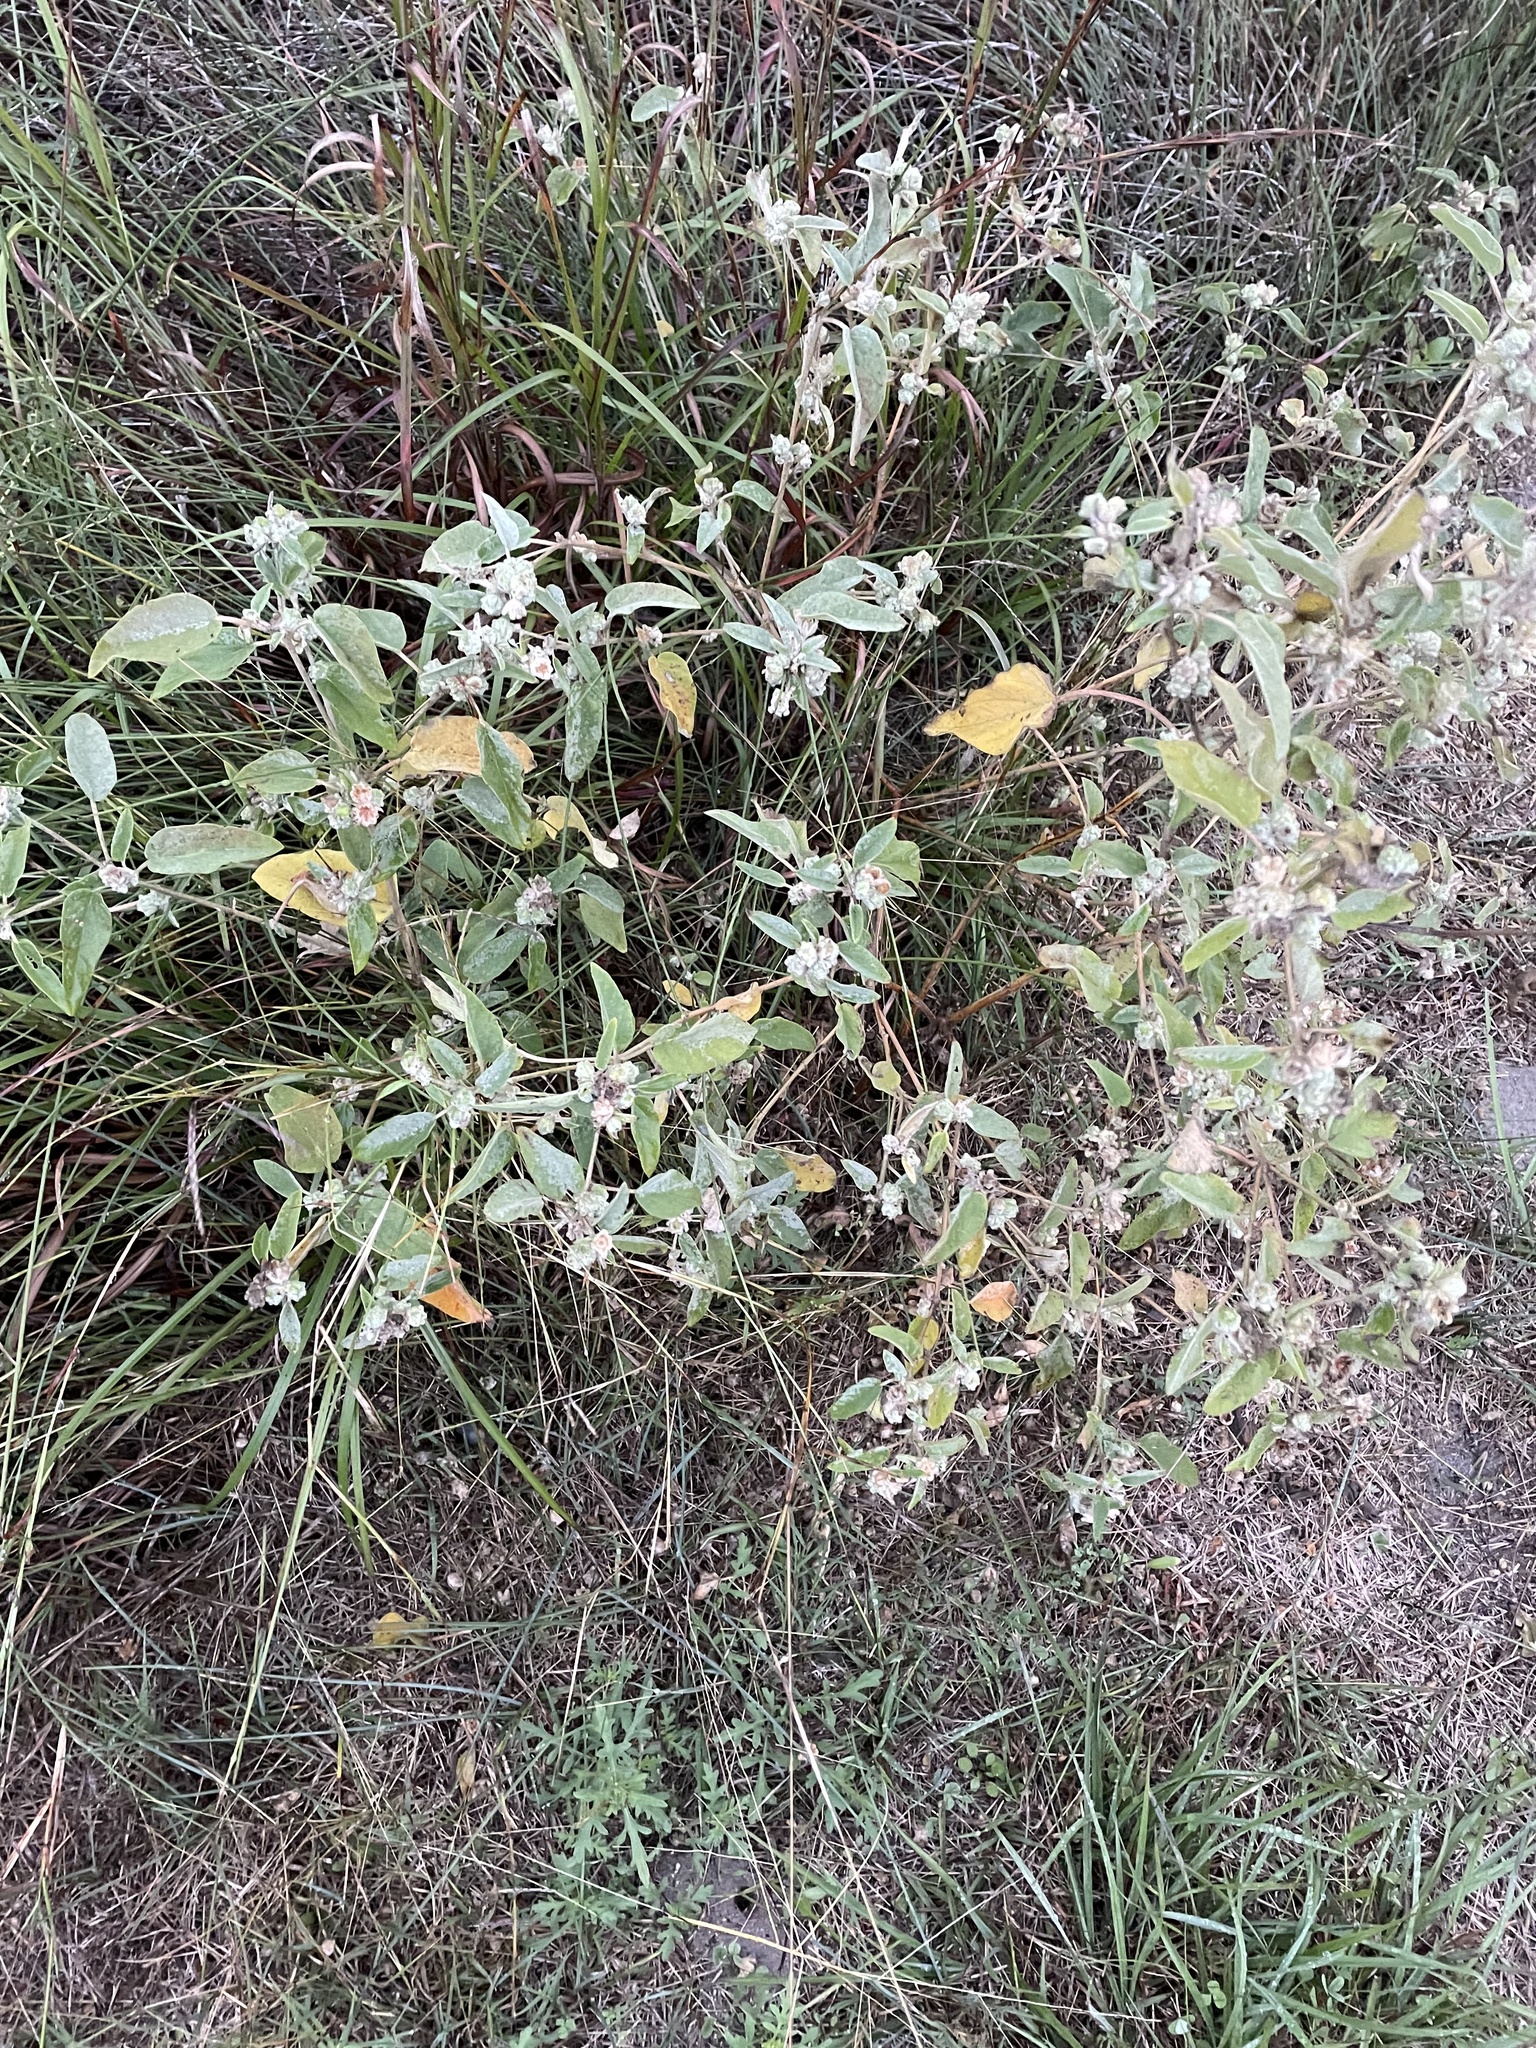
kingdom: Plantae
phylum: Tracheophyta
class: Magnoliopsida
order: Malpighiales
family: Euphorbiaceae
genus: Croton
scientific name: Croton heptalon
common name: Woolly croton
